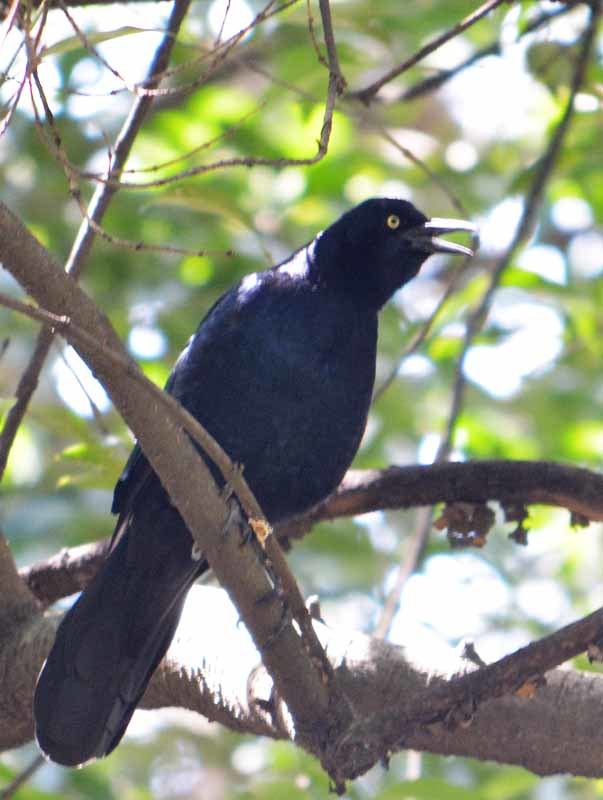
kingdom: Animalia
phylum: Chordata
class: Aves
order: Passeriformes
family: Icteridae
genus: Quiscalus
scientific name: Quiscalus mexicanus
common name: Great-tailed grackle
